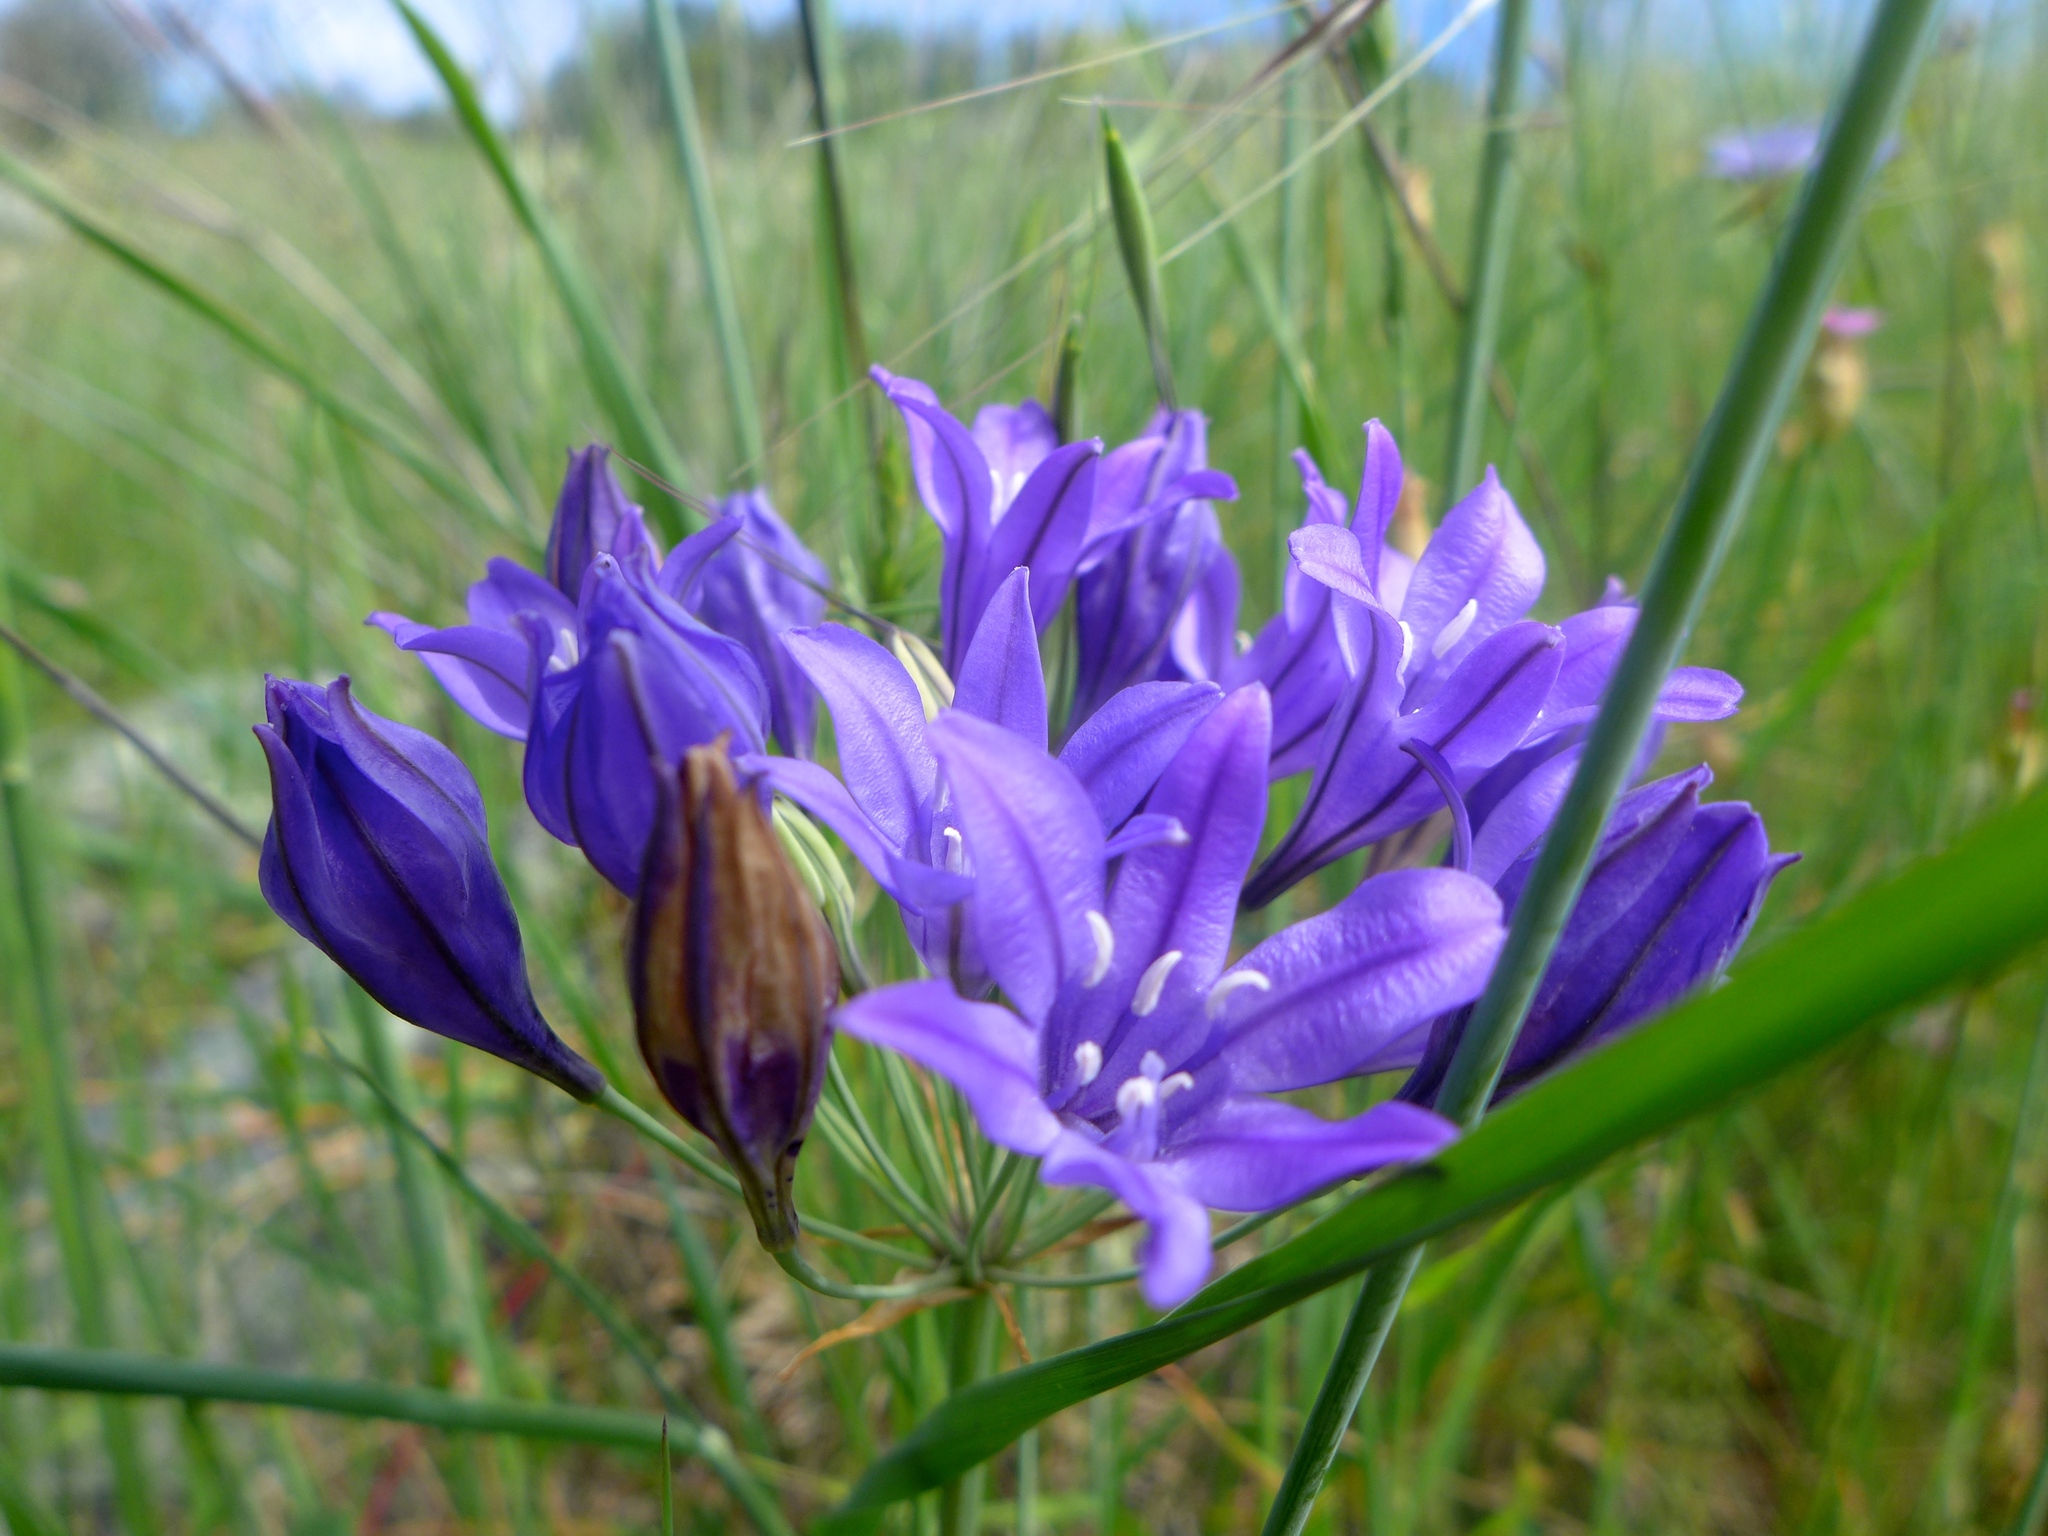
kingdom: Plantae
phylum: Tracheophyta
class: Liliopsida
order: Asparagales
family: Asparagaceae
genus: Triteleia
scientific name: Triteleia laxa
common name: Triplet-lily
